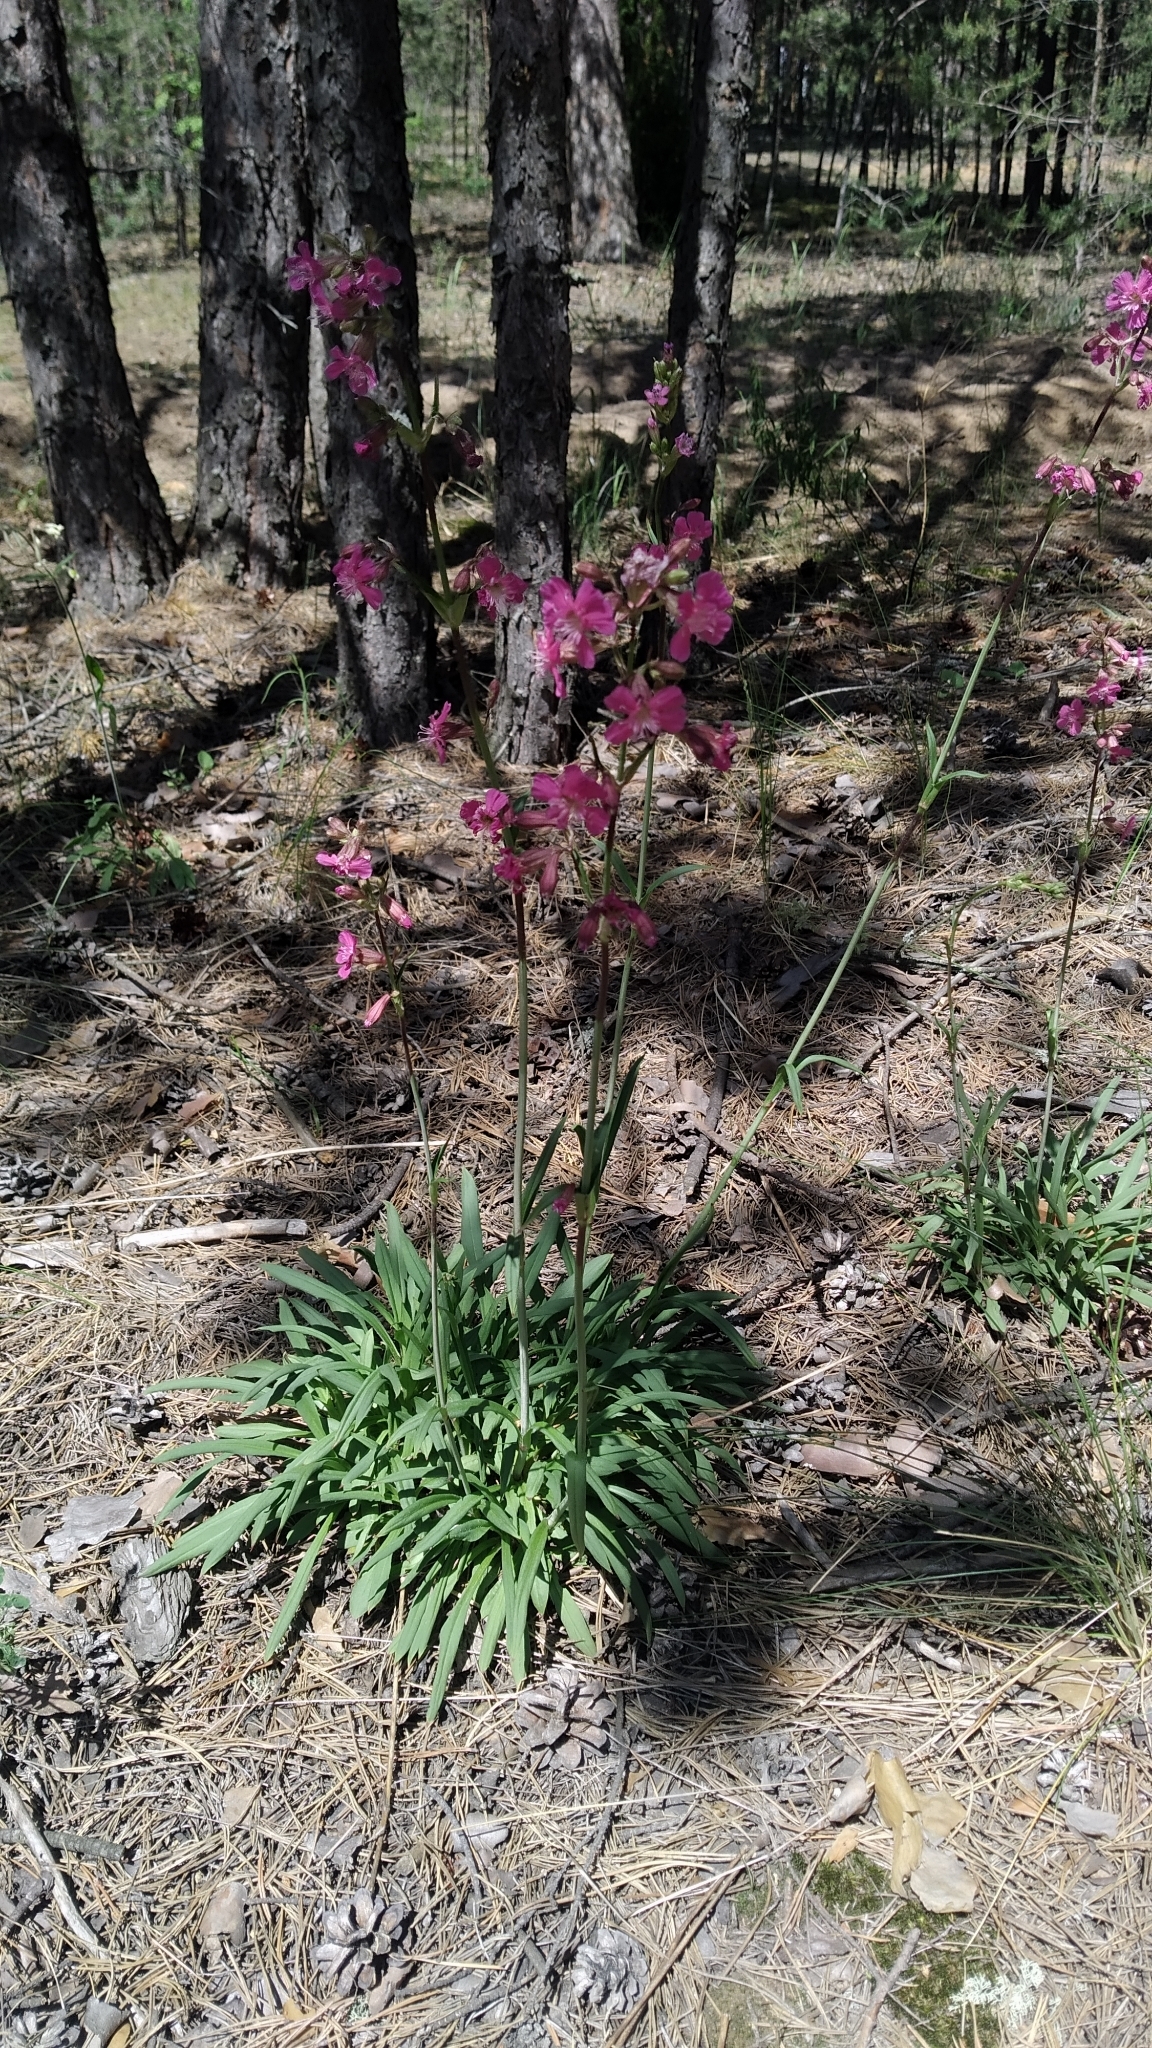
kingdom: Plantae
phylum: Tracheophyta
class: Magnoliopsida
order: Caryophyllales
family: Caryophyllaceae
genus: Viscaria
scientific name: Viscaria vulgaris
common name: Clammy campion
